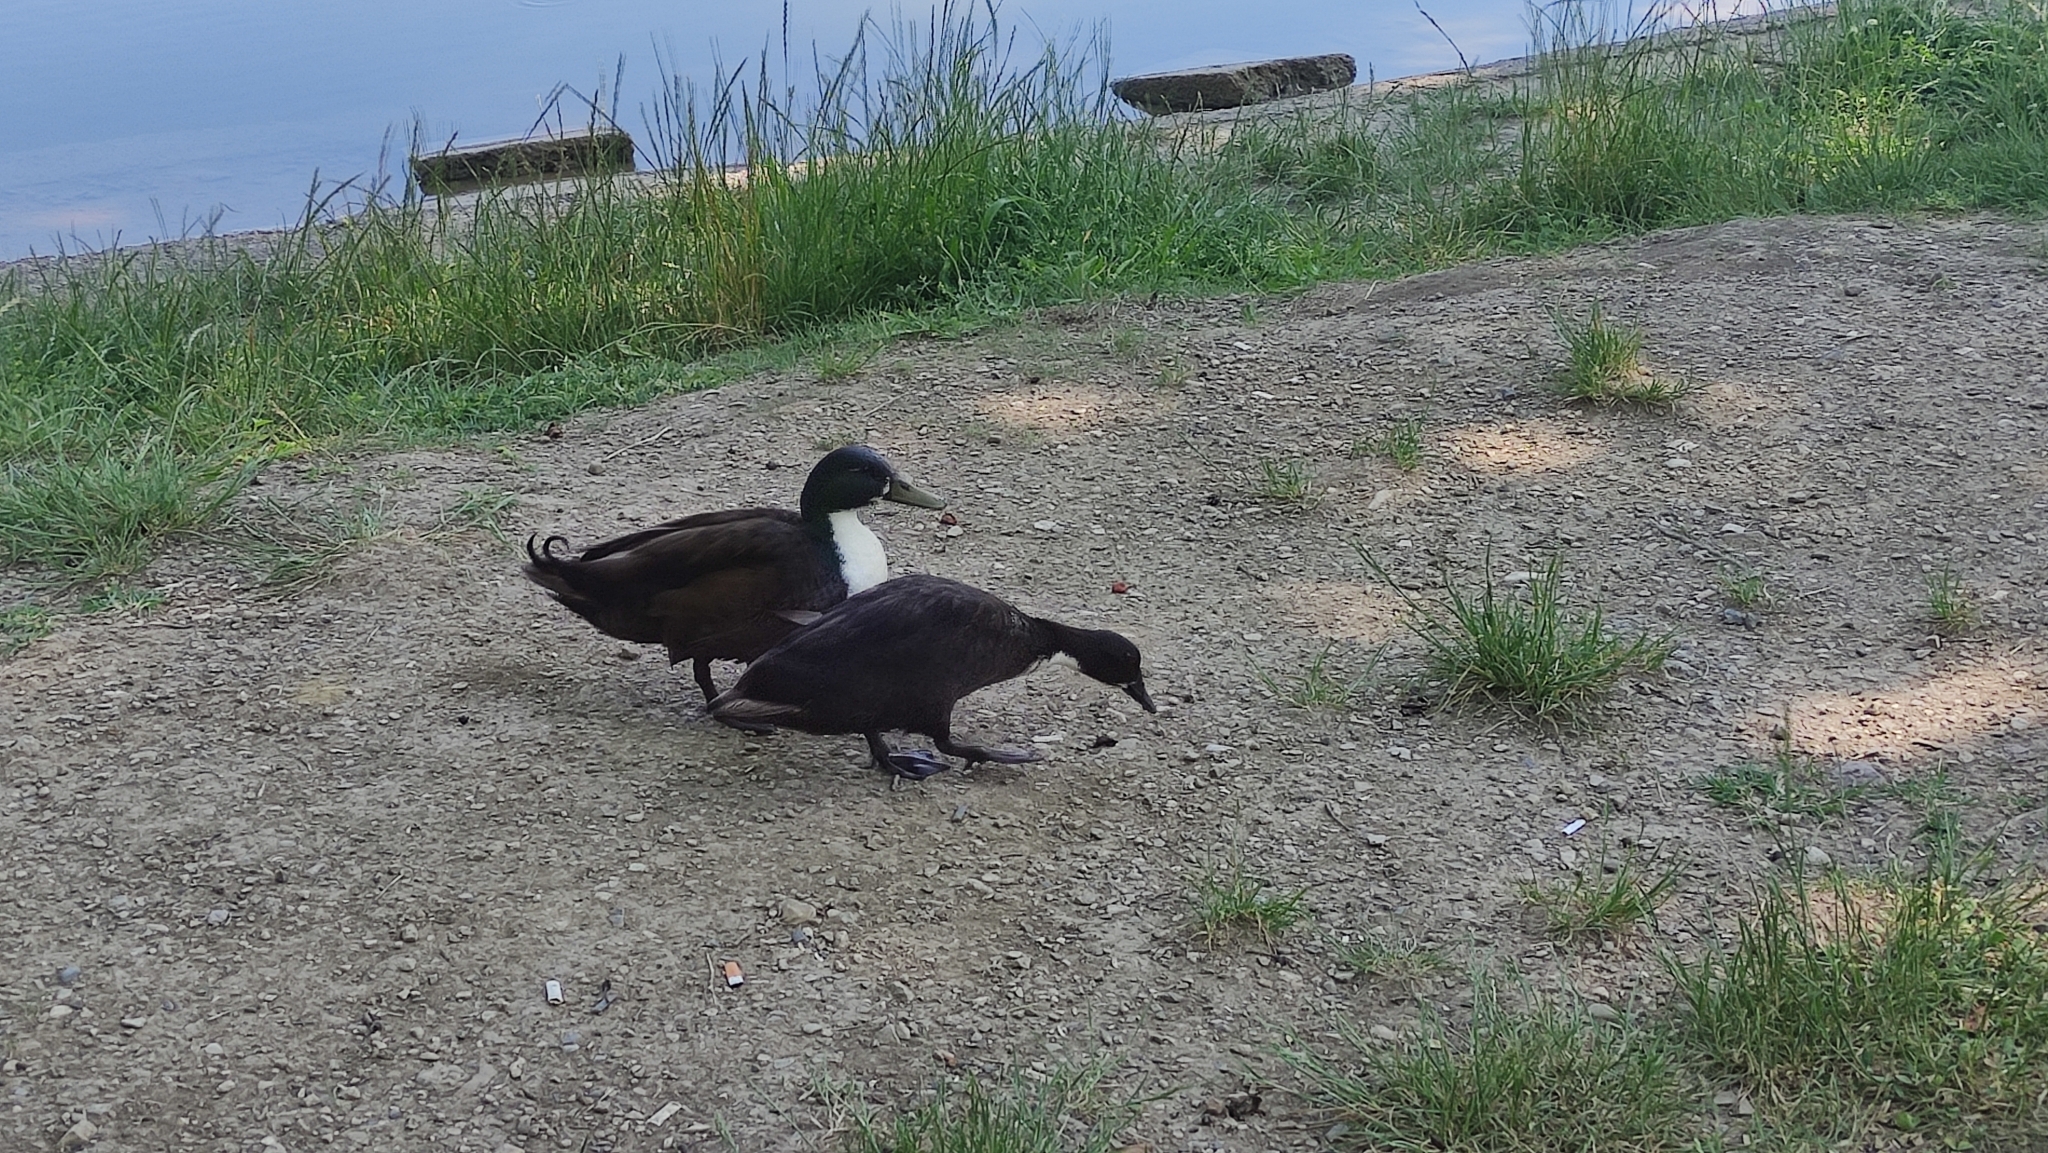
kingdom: Animalia
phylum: Chordata
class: Aves
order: Anseriformes
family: Anatidae
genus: Anas
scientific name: Anas platyrhynchos
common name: Mallard
